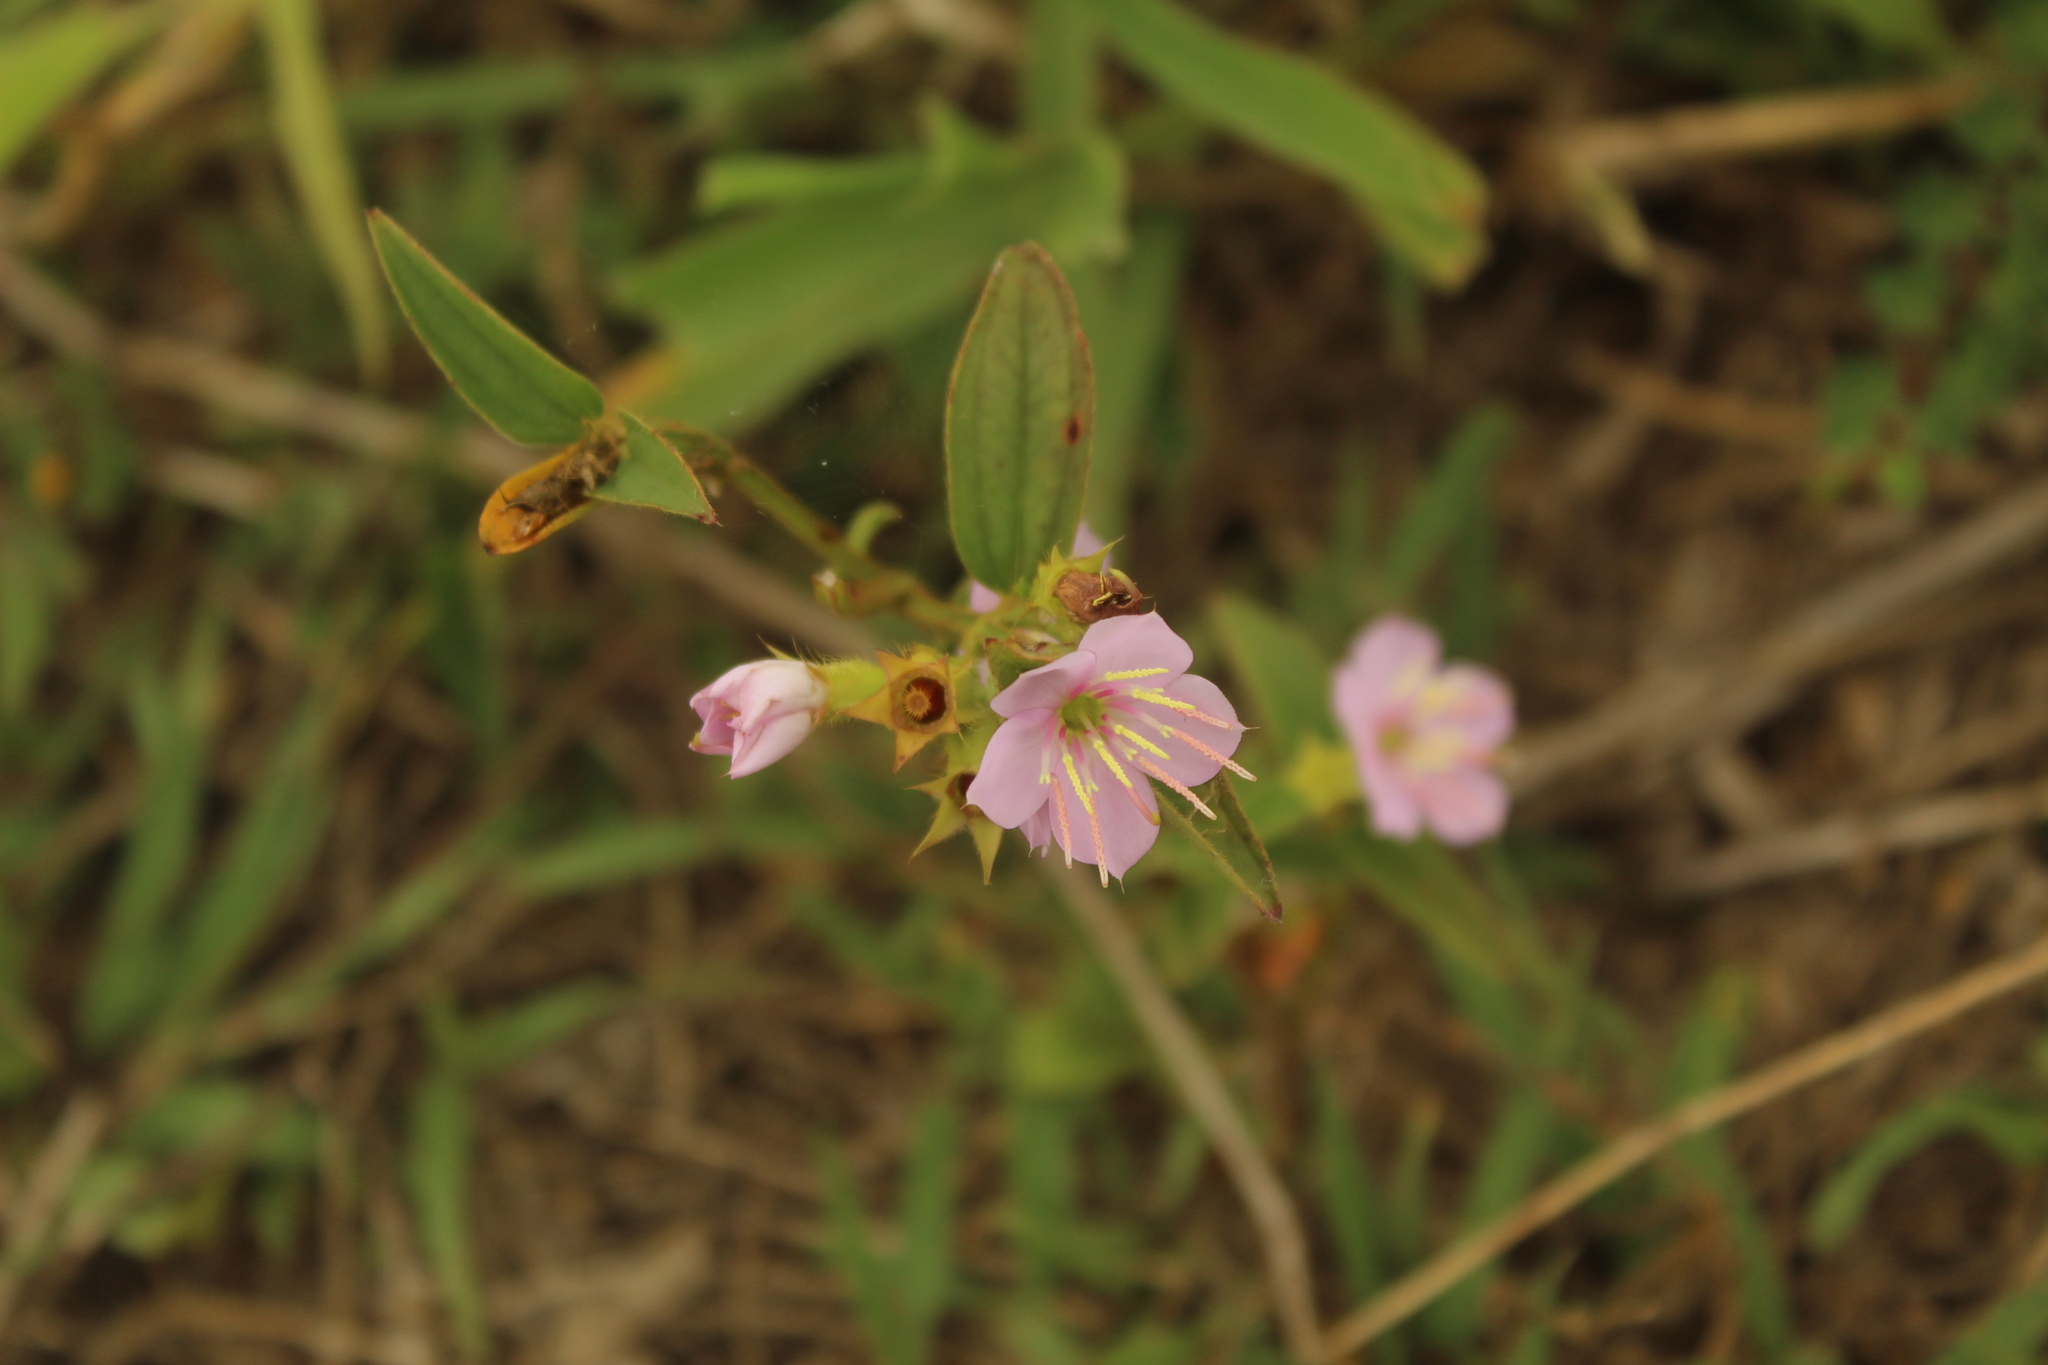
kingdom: Plantae
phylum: Tracheophyta
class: Magnoliopsida
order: Myrtales
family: Melastomataceae
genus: Chaetogastra
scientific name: Chaetogastra gracilis
